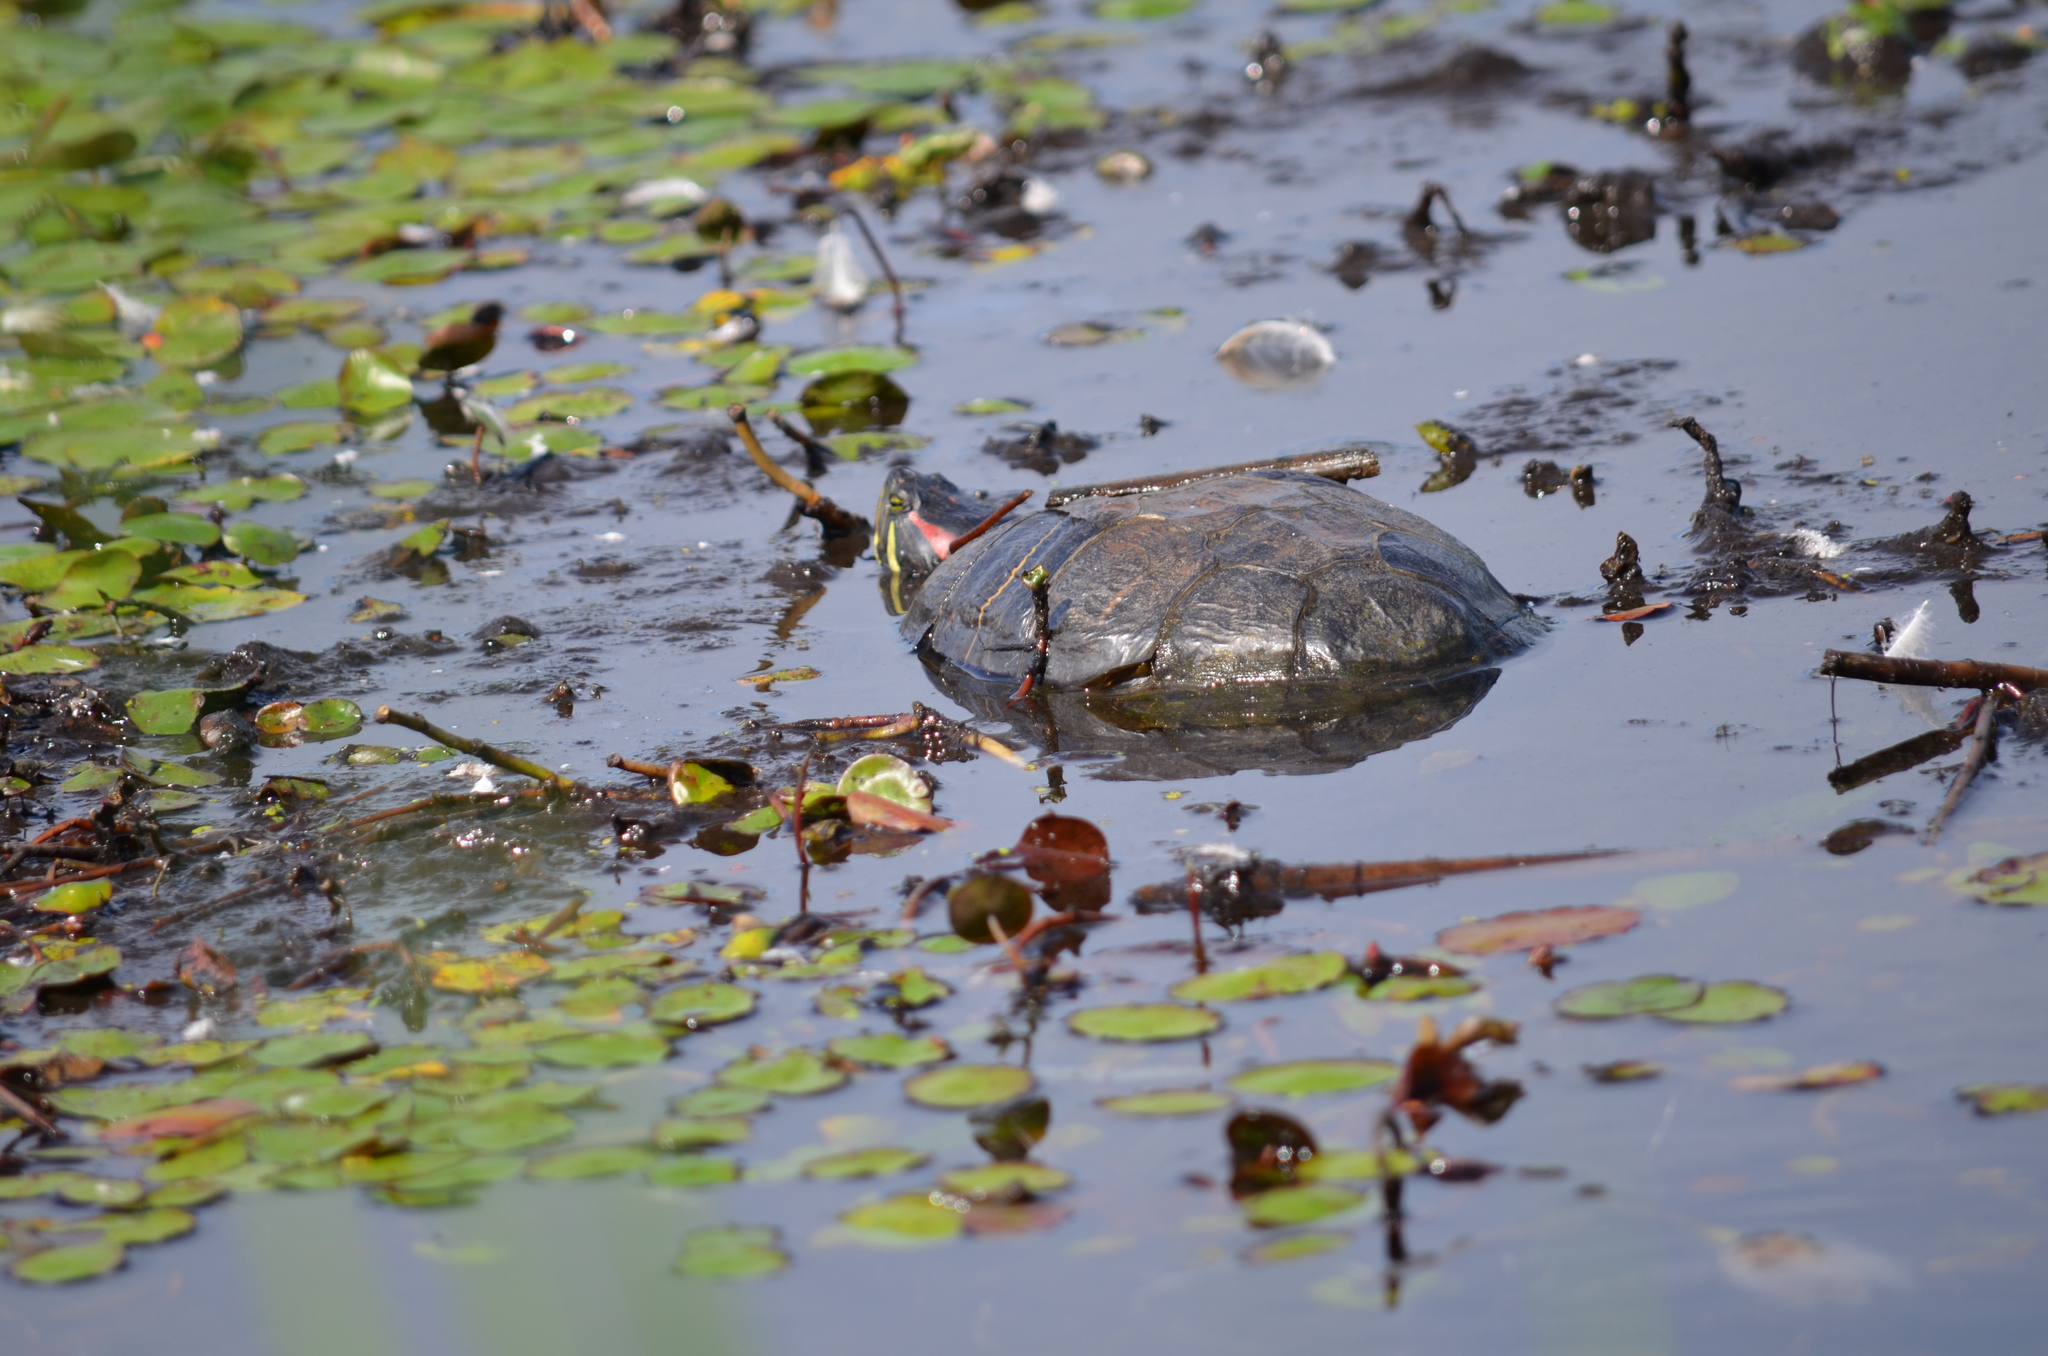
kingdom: Animalia
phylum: Chordata
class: Testudines
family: Emydidae
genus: Trachemys
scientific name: Trachemys scripta
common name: Slider
